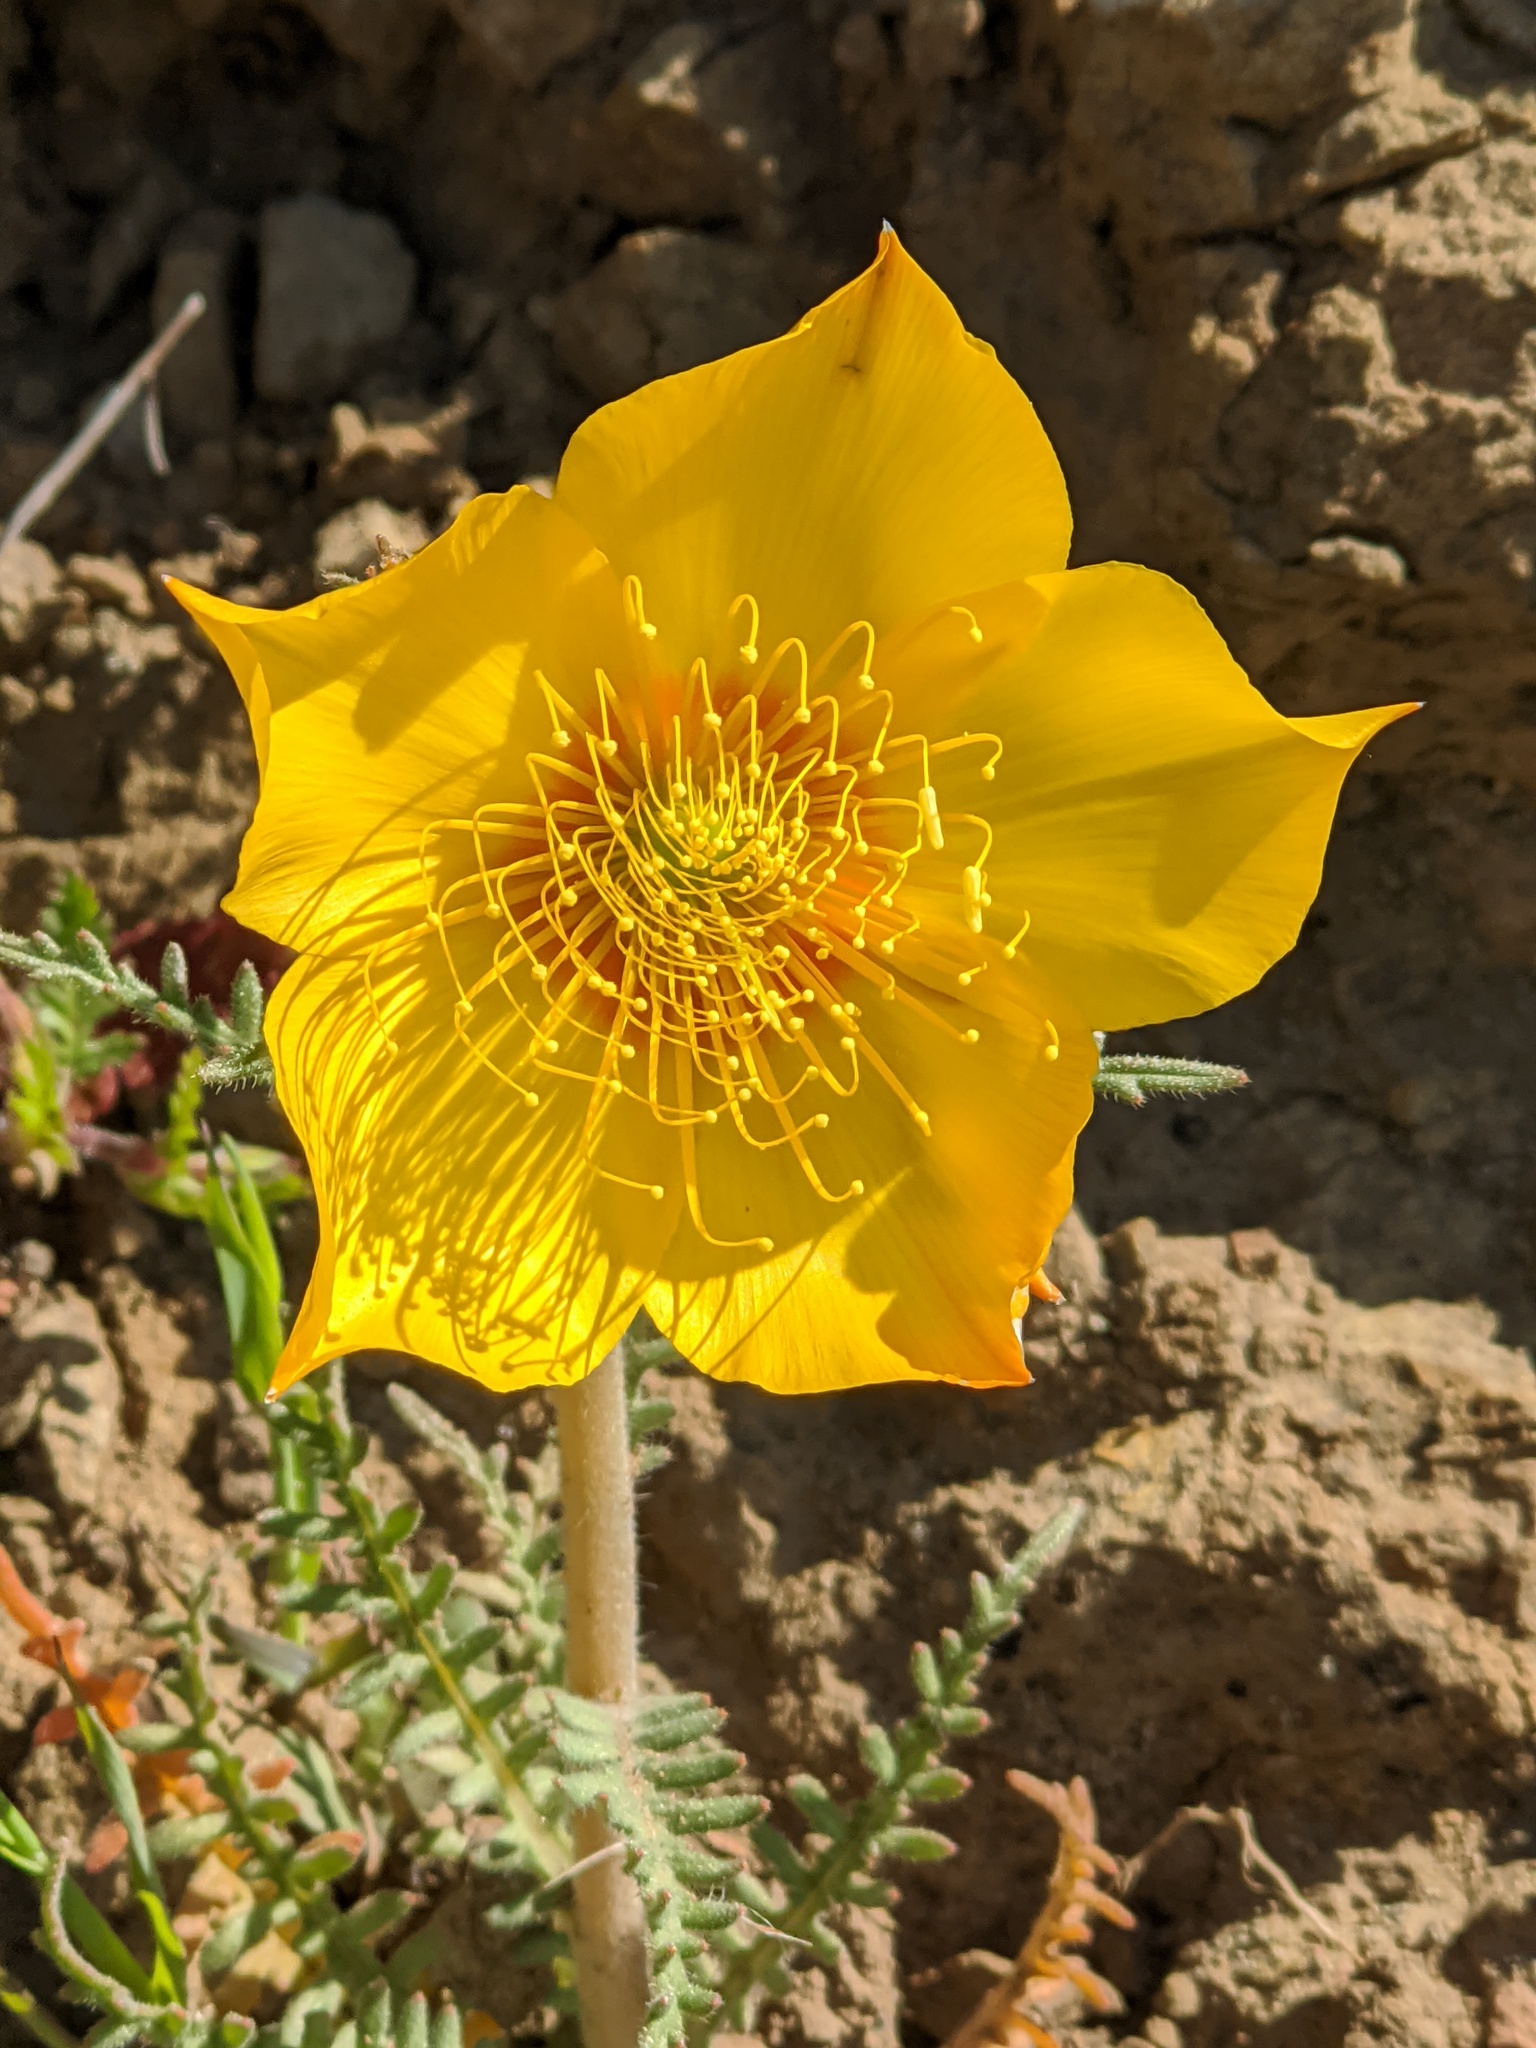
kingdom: Plantae
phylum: Tracheophyta
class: Magnoliopsida
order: Cornales
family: Loasaceae
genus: Mentzelia
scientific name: Mentzelia lindleyi
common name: Golden bartonia
